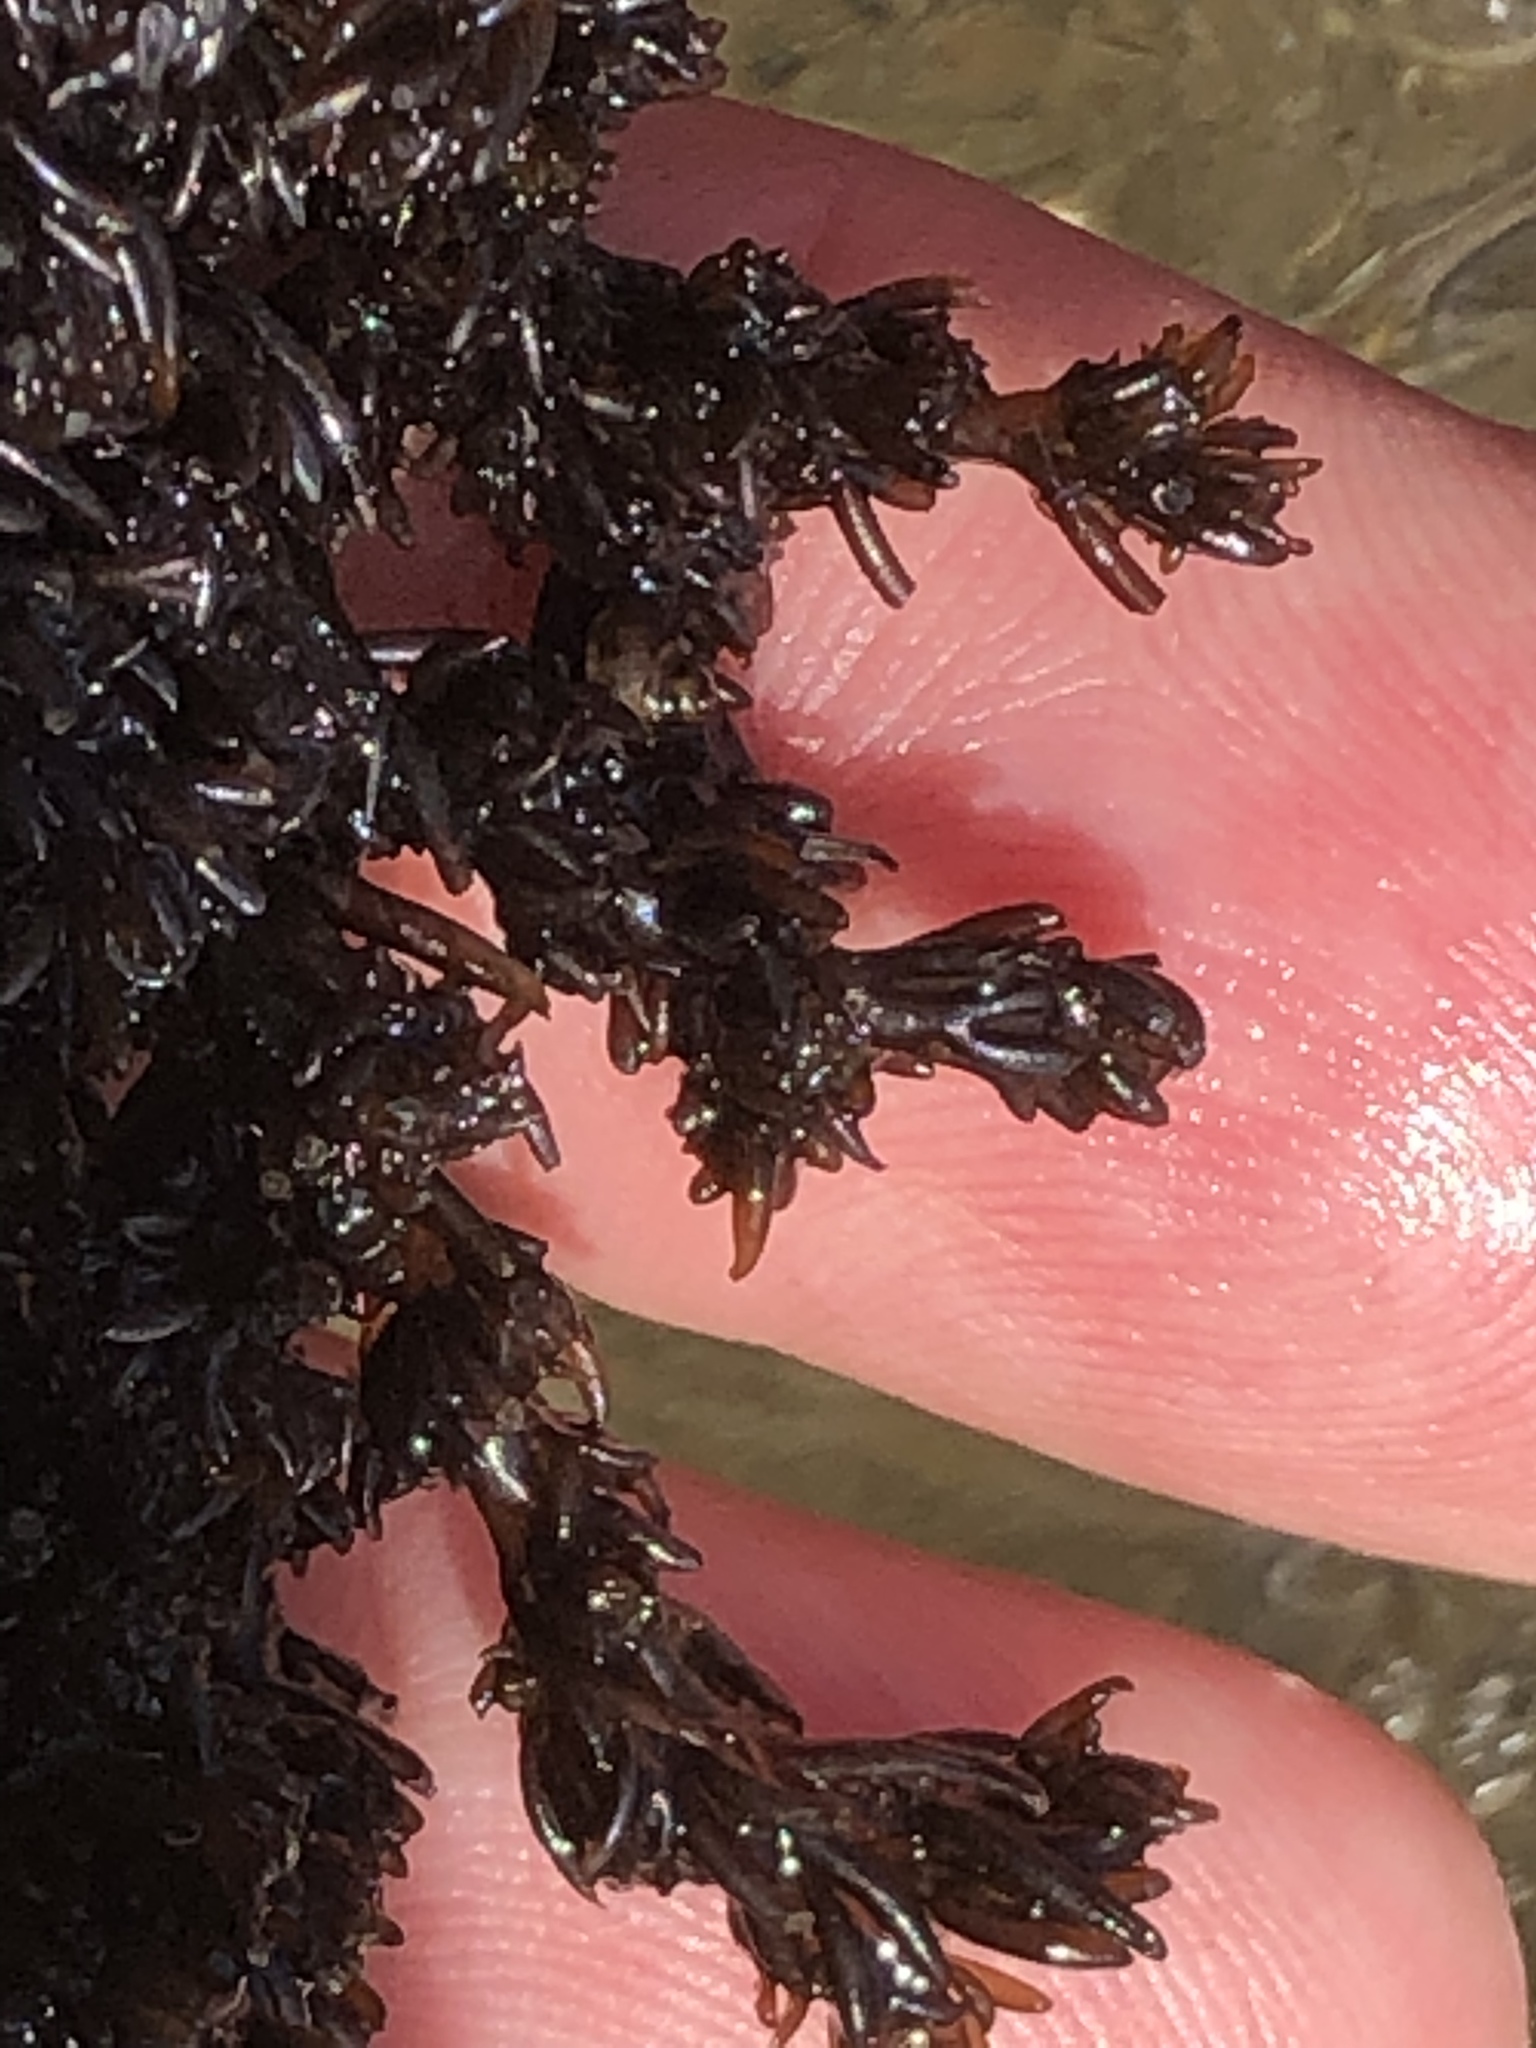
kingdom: Plantae
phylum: Rhodophyta
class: Florideophyceae
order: Ceramiales
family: Rhodomelaceae
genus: Neorhodomela
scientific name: Neorhodomela larix
